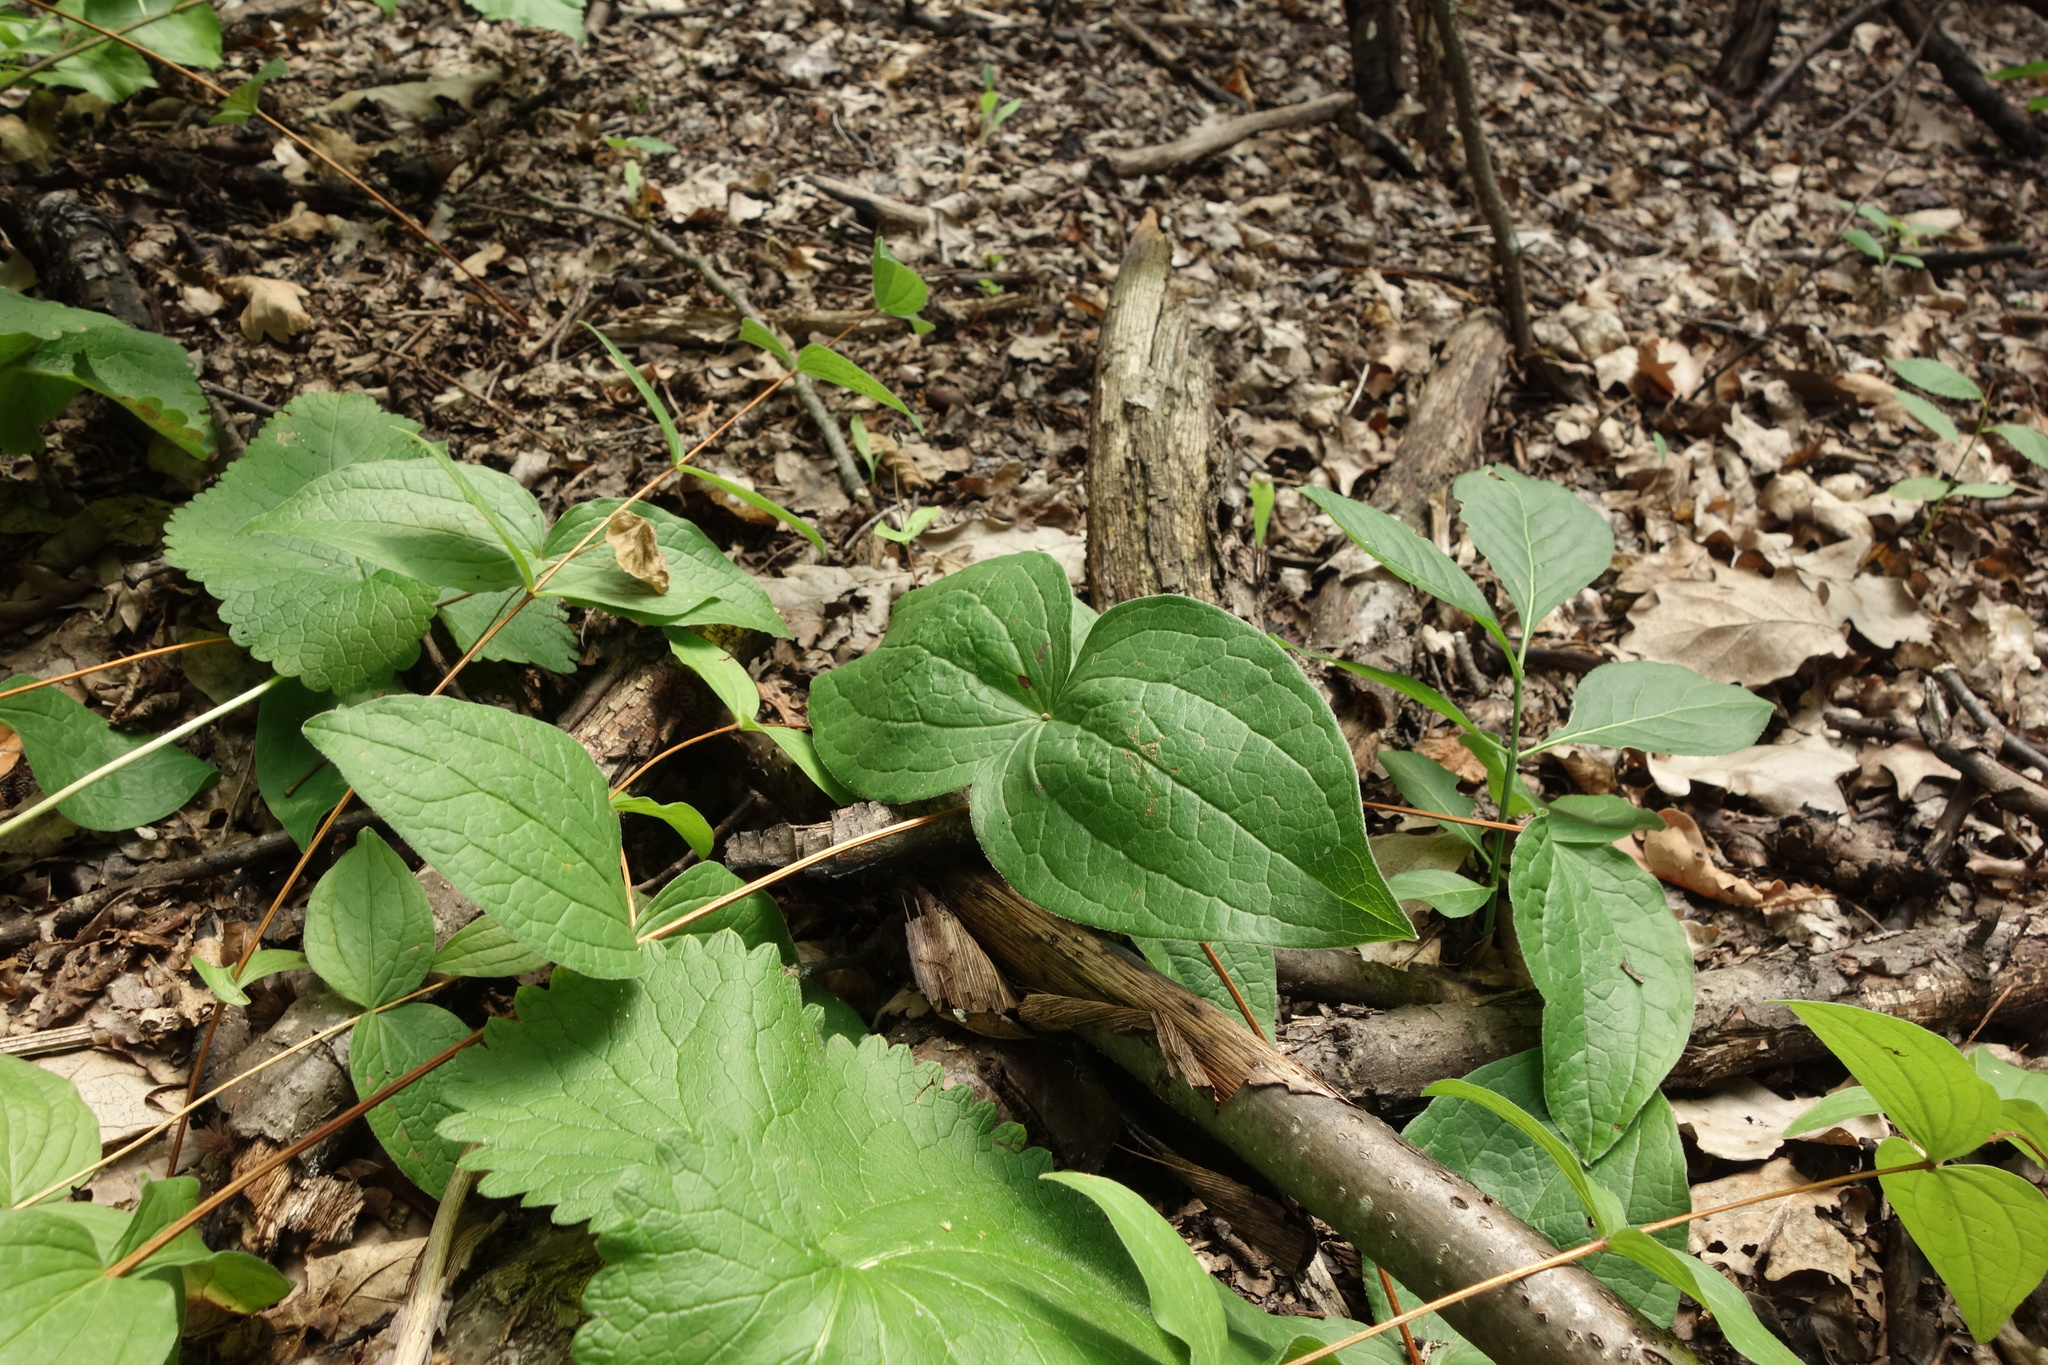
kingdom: Plantae
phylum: Tracheophyta
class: Magnoliopsida
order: Ranunculales
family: Ranunculaceae
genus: Clematis
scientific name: Clematis integrifolia
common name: Solitary clematis
